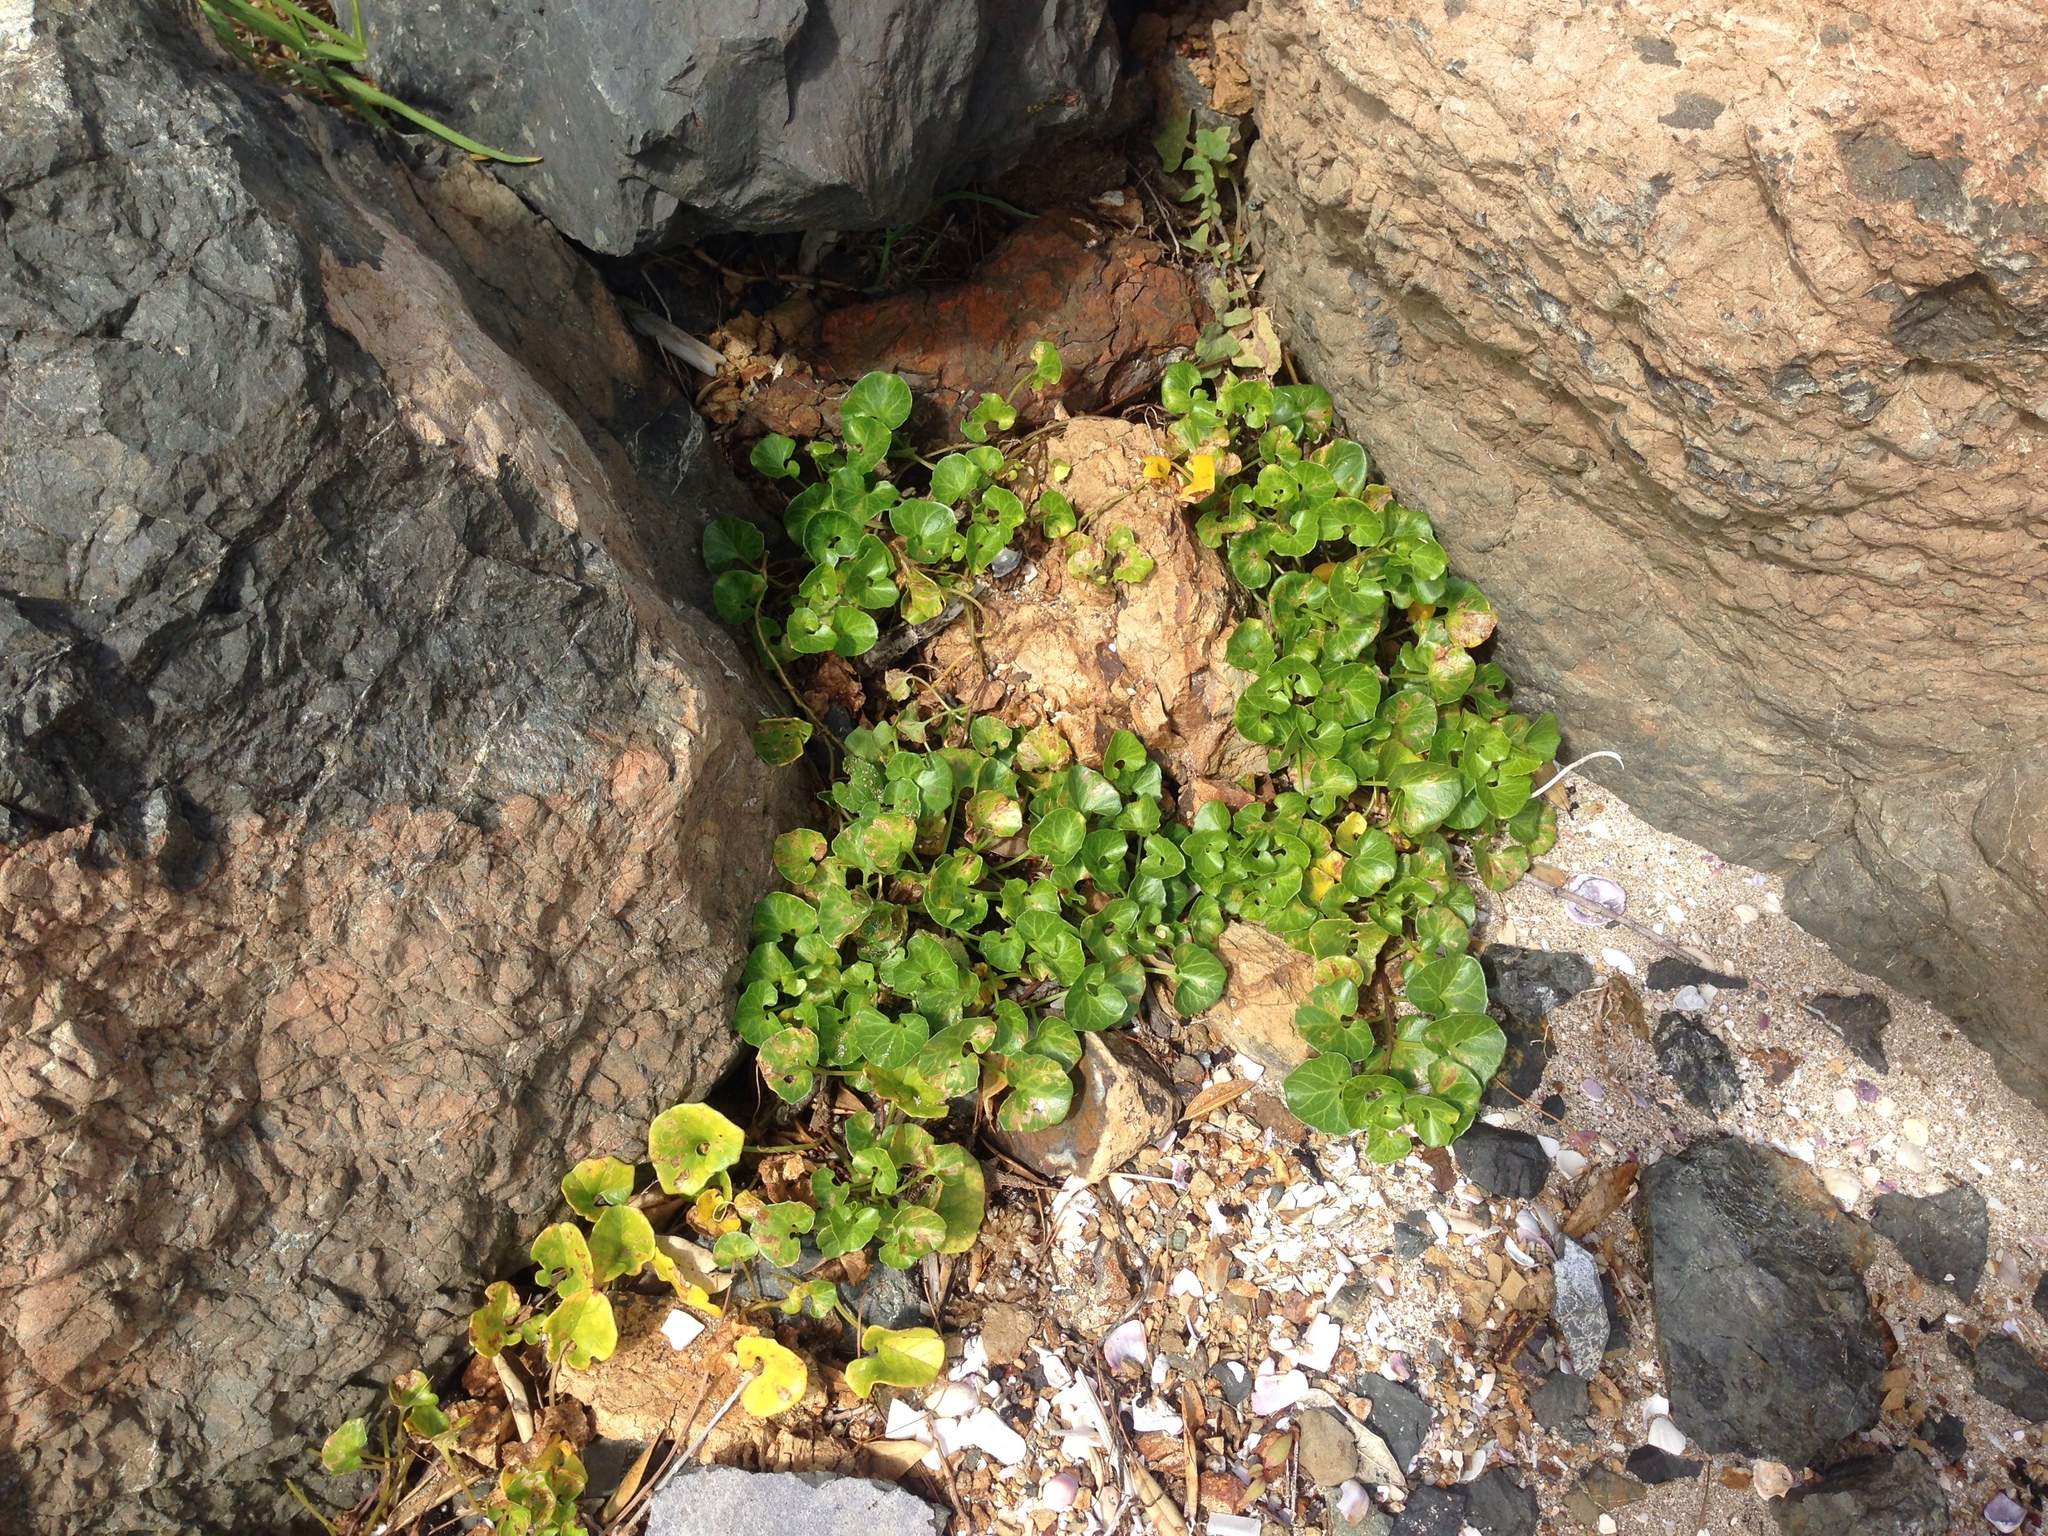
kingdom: Plantae
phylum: Tracheophyta
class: Magnoliopsida
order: Solanales
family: Convolvulaceae
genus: Calystegia
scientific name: Calystegia soldanella
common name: Sea bindweed
